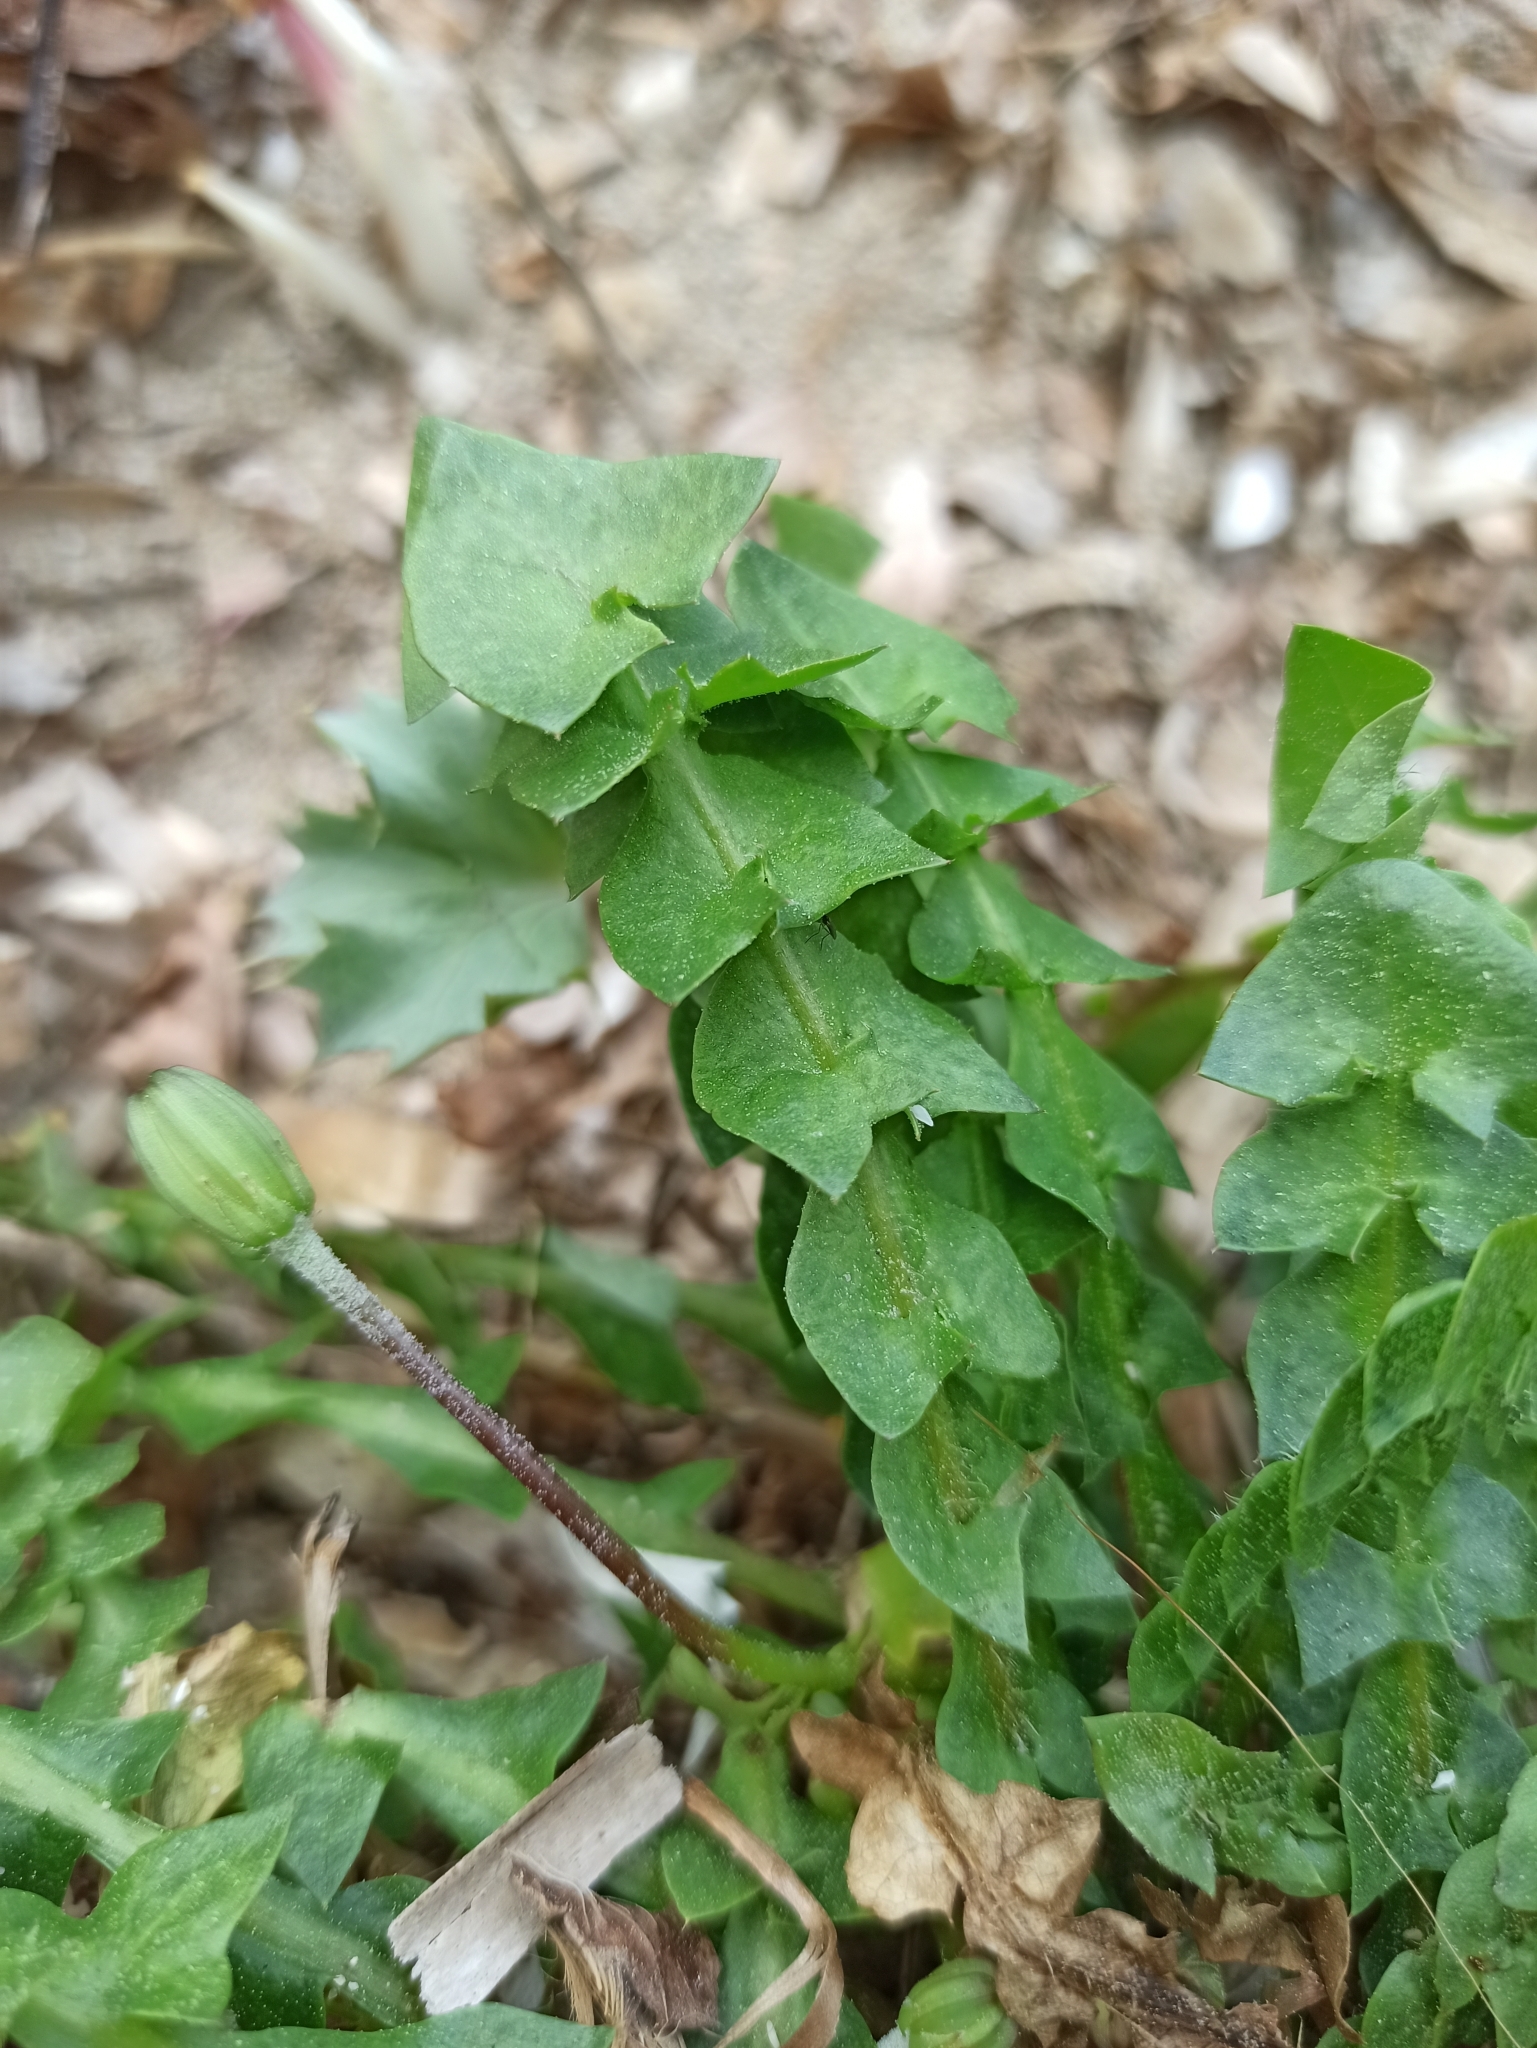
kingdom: Plantae
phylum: Tracheophyta
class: Magnoliopsida
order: Asterales
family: Asteraceae
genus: Hyoseris
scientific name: Hyoseris radiata
